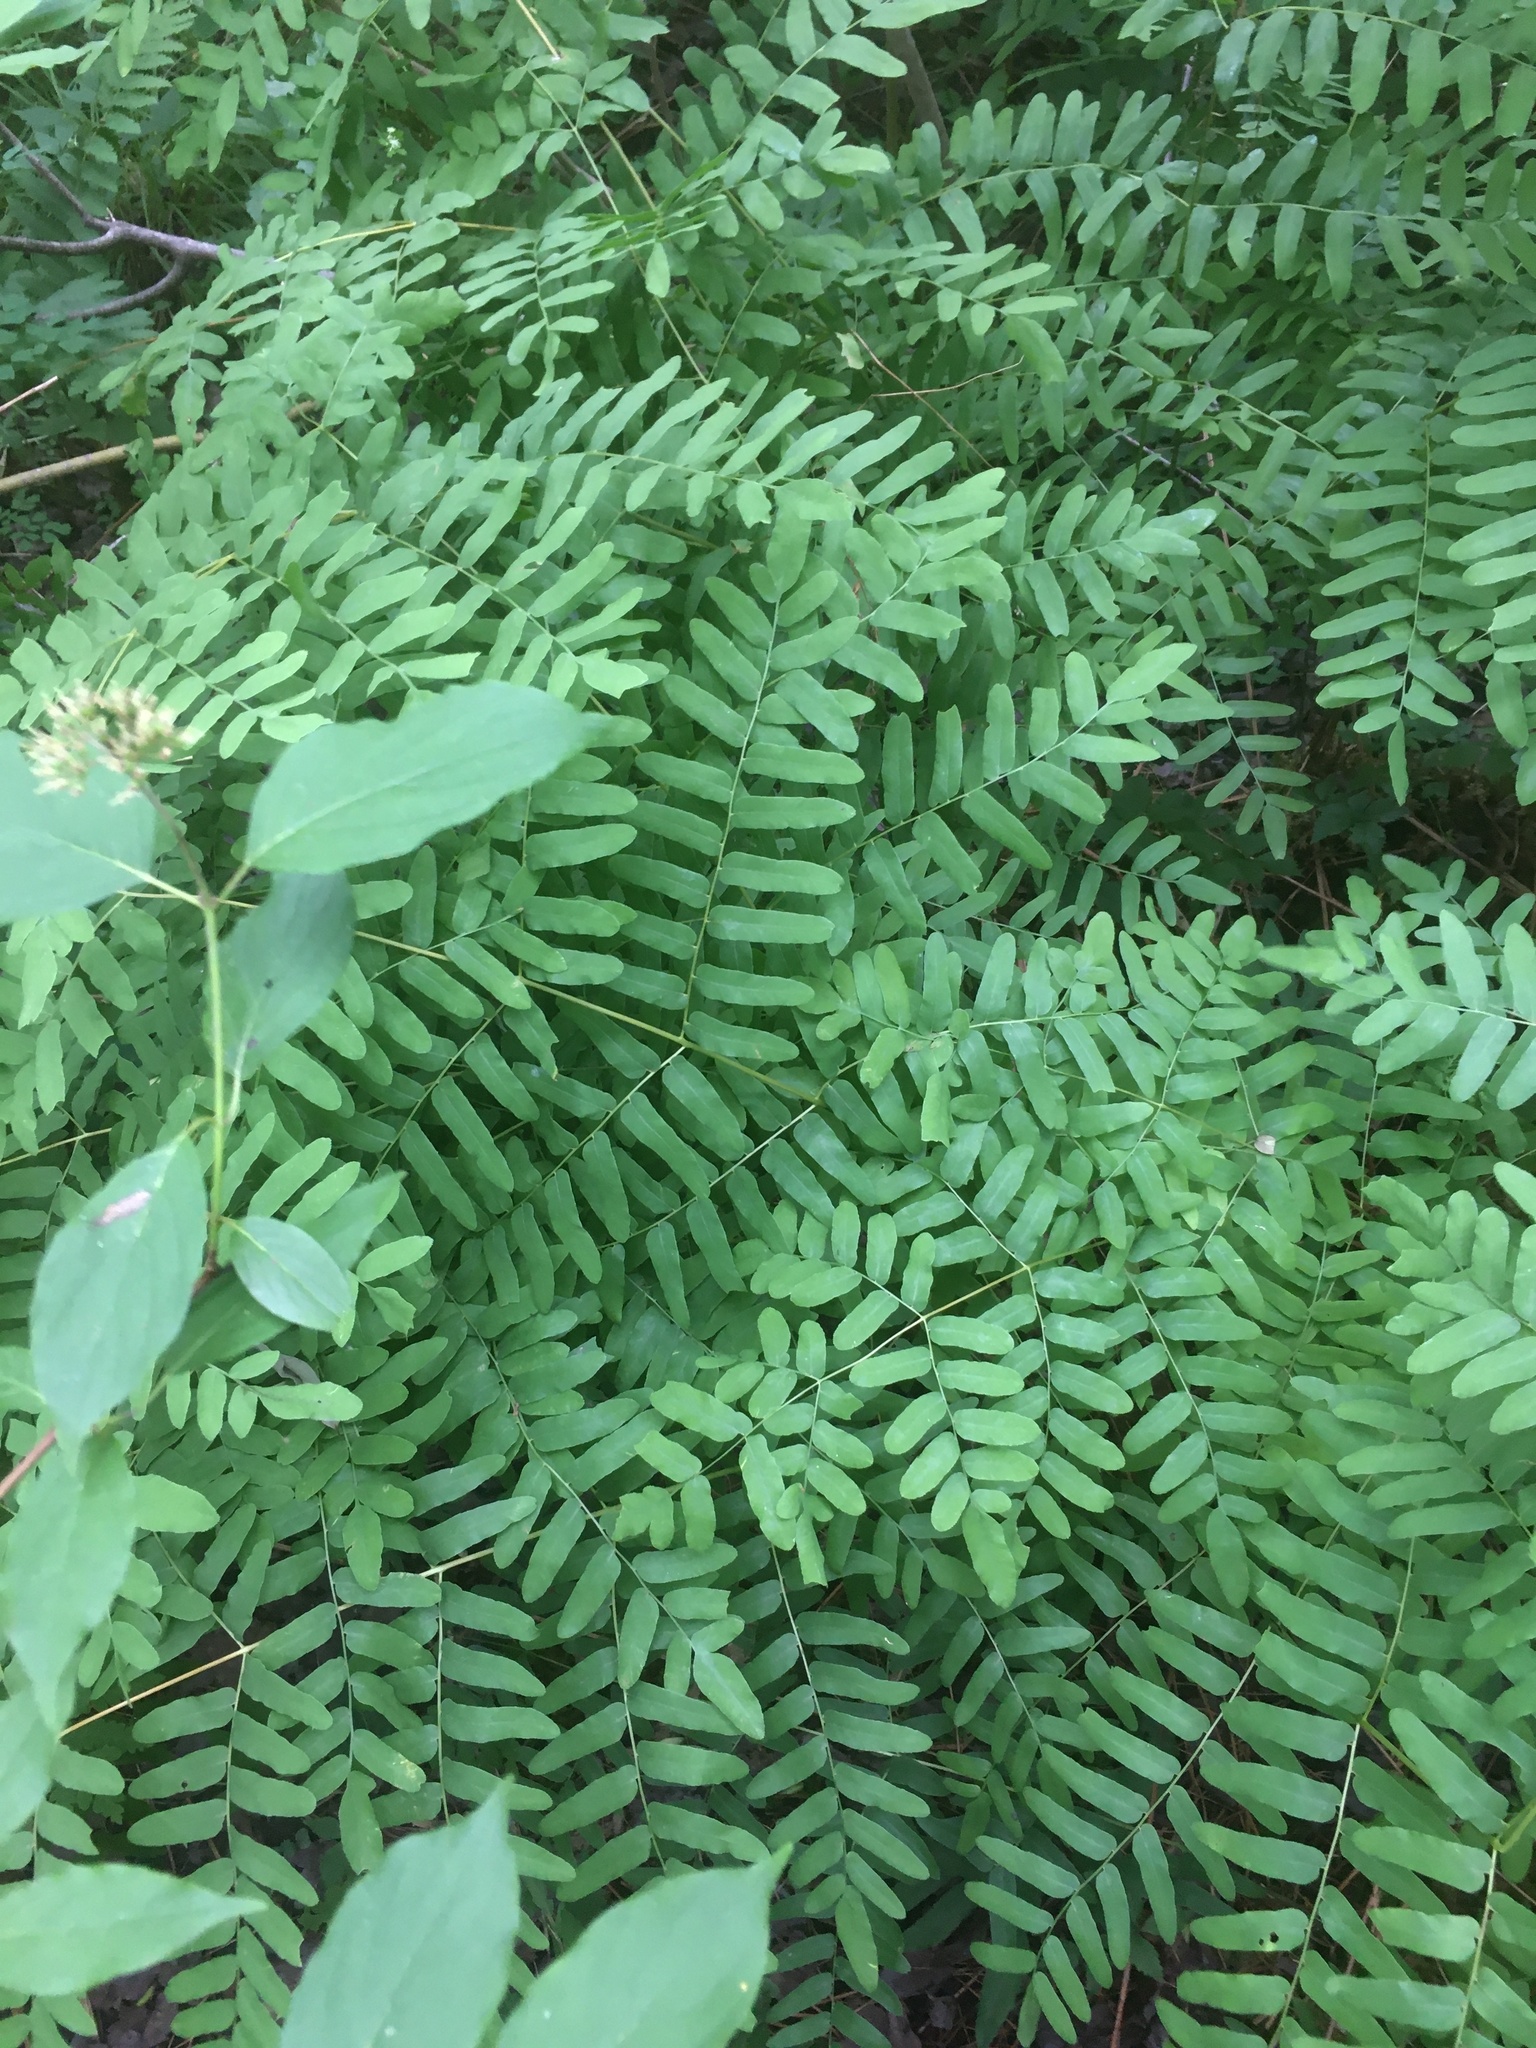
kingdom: Plantae
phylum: Tracheophyta
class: Polypodiopsida
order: Osmundales
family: Osmundaceae
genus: Osmunda
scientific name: Osmunda spectabilis
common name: American royal fern
